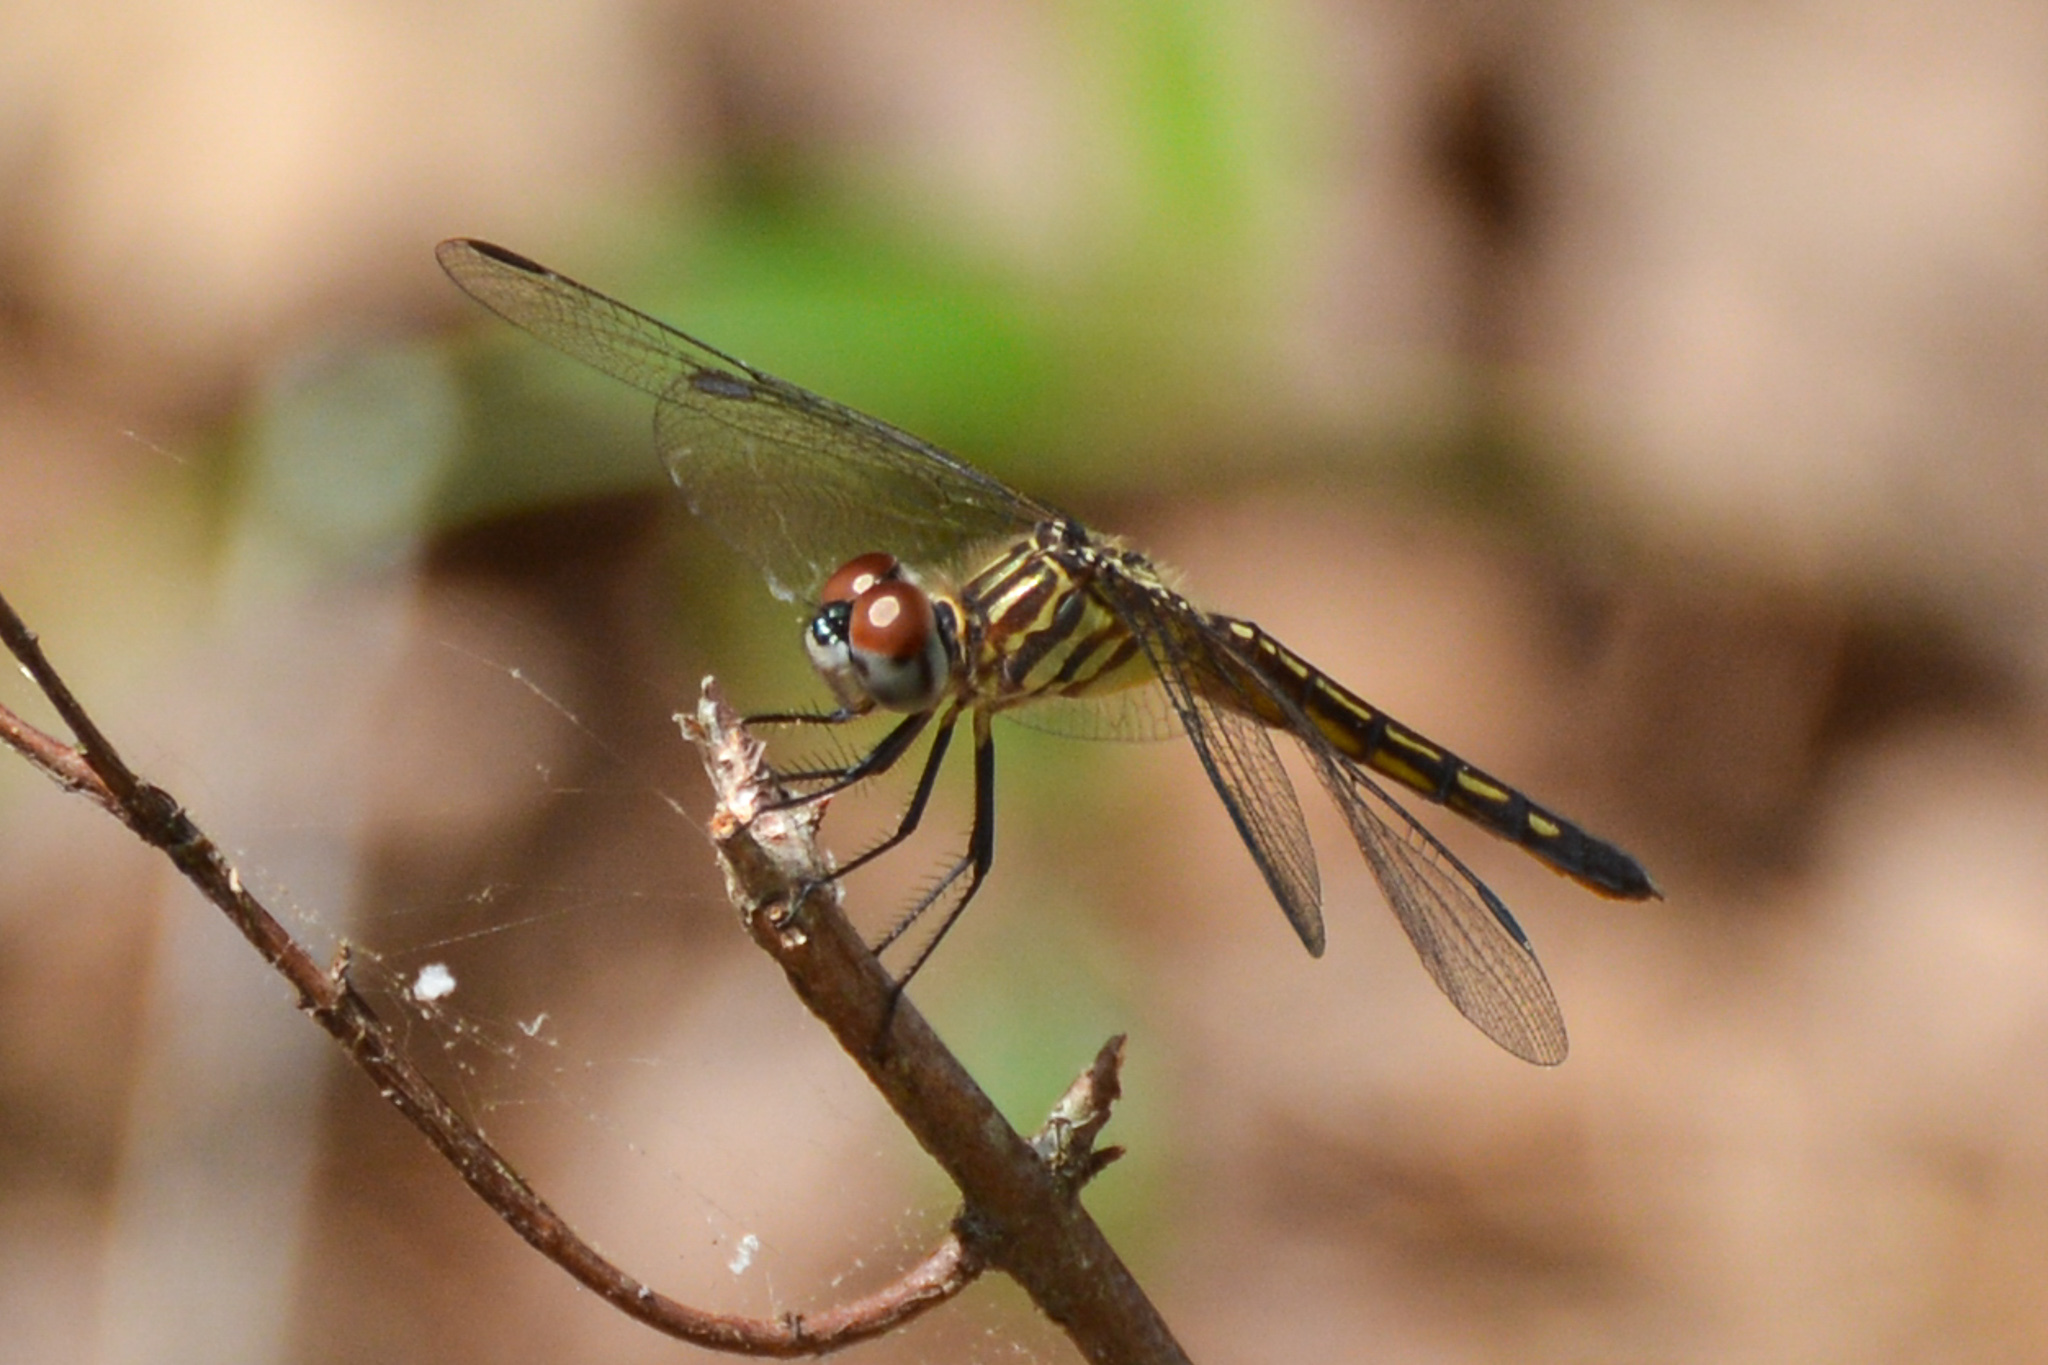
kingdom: Animalia
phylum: Arthropoda
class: Insecta
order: Odonata
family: Libellulidae
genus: Pachydiplax
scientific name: Pachydiplax longipennis
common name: Blue dasher
